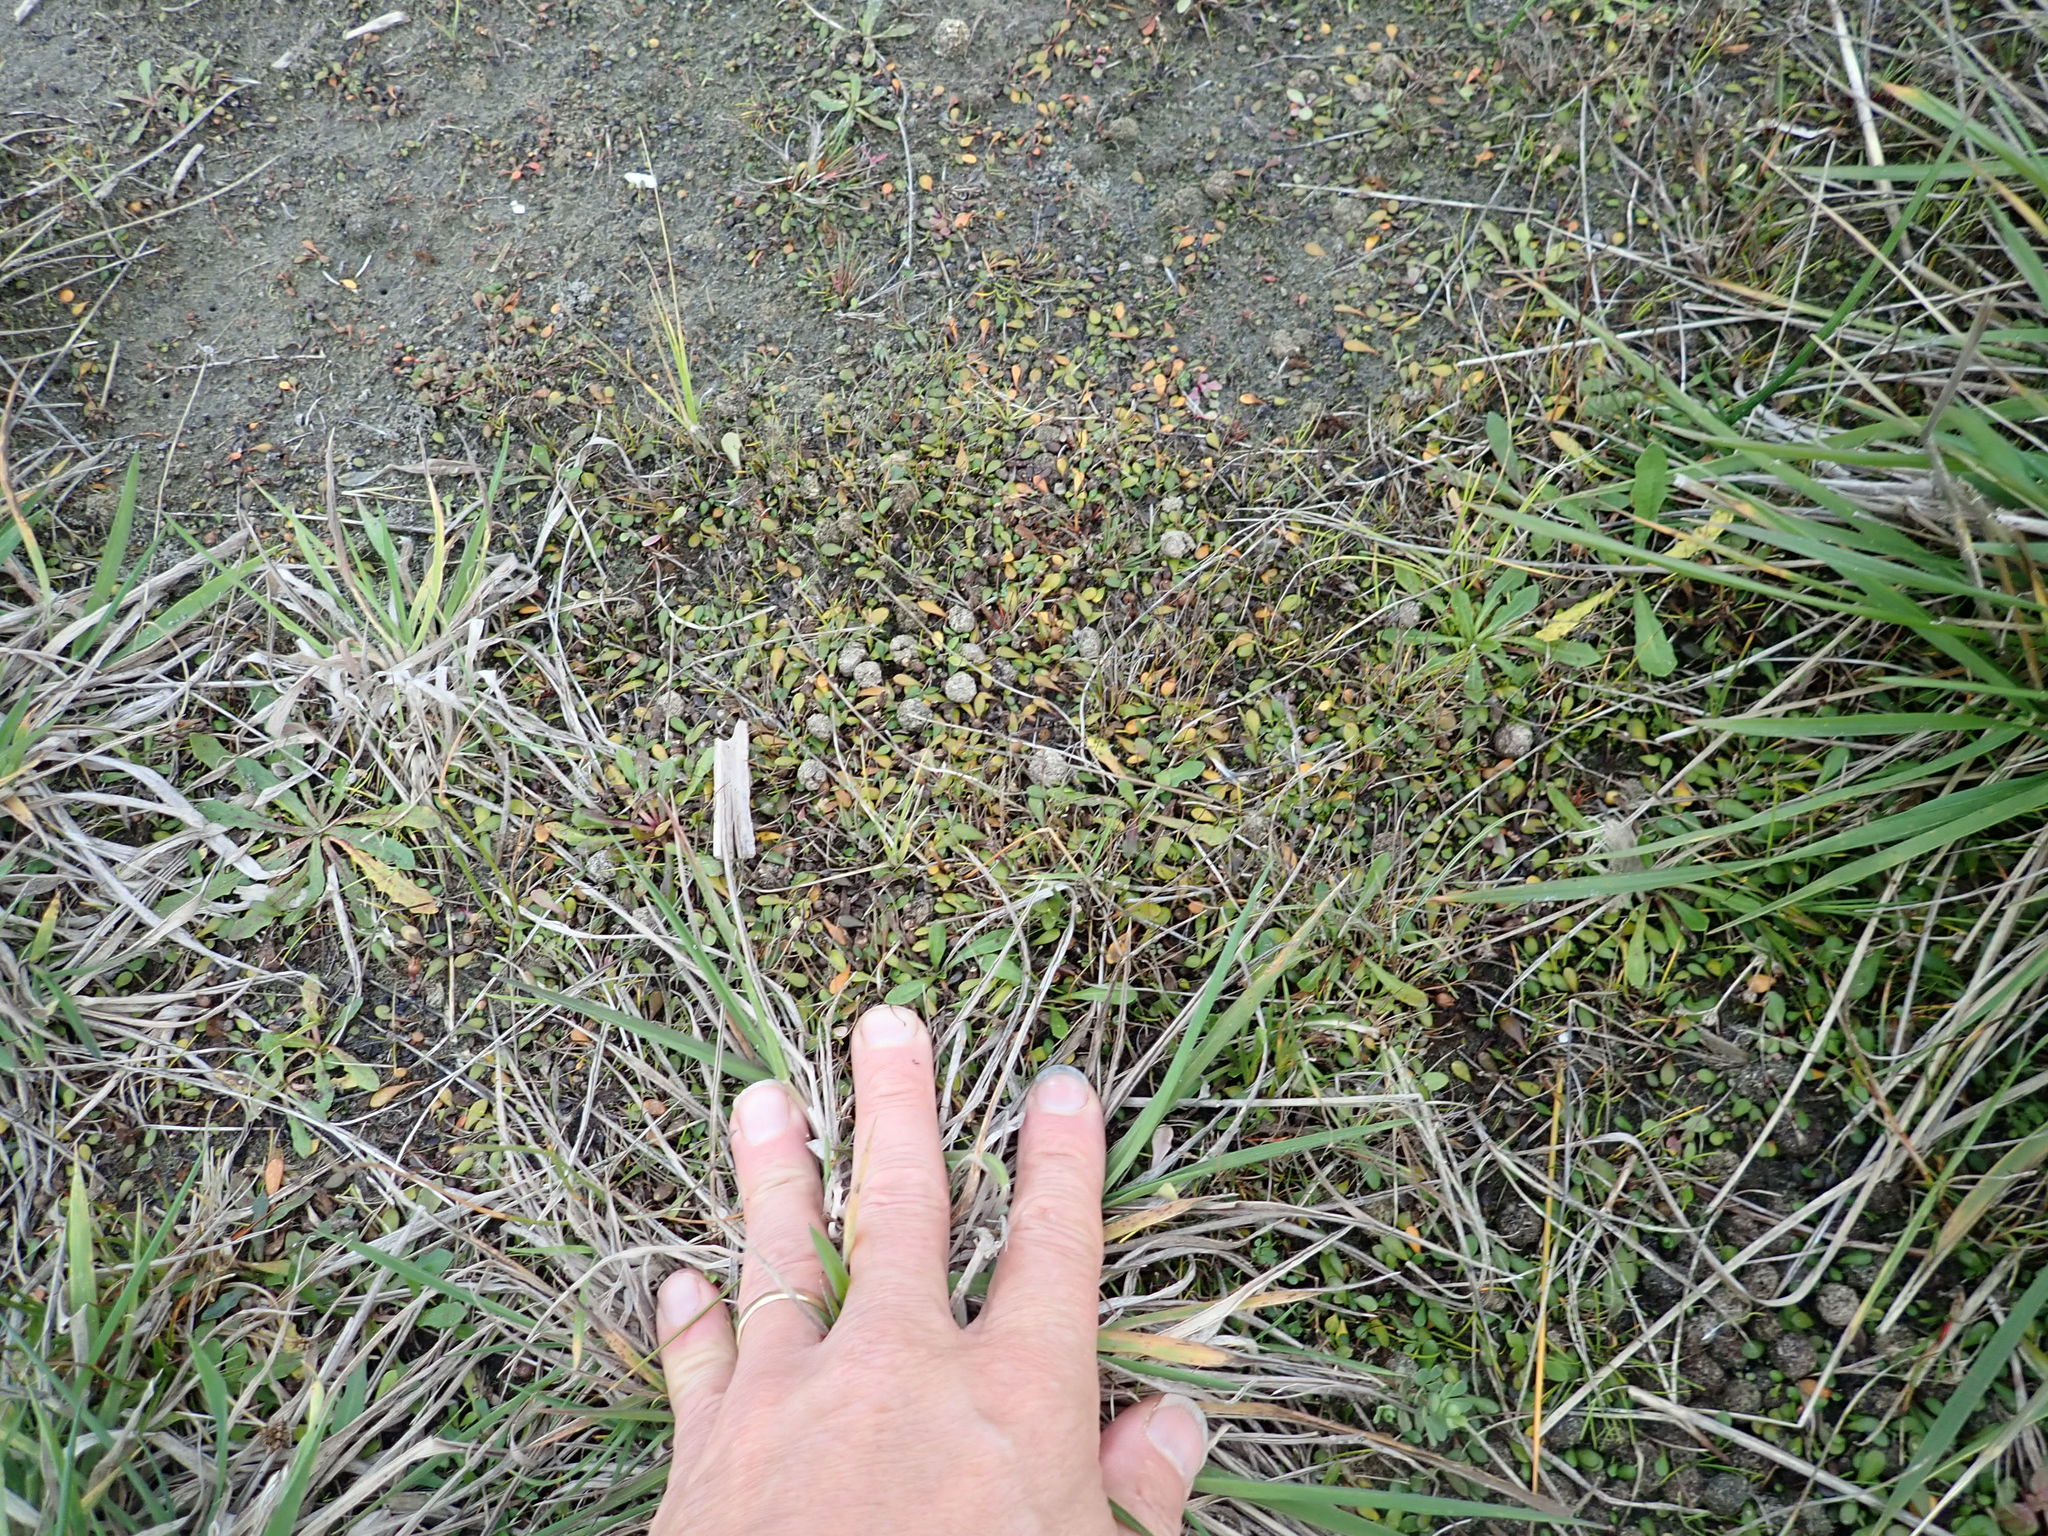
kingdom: Plantae
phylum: Tracheophyta
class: Magnoliopsida
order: Asterales
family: Goodeniaceae
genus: Goodenia
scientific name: Goodenia radicans
